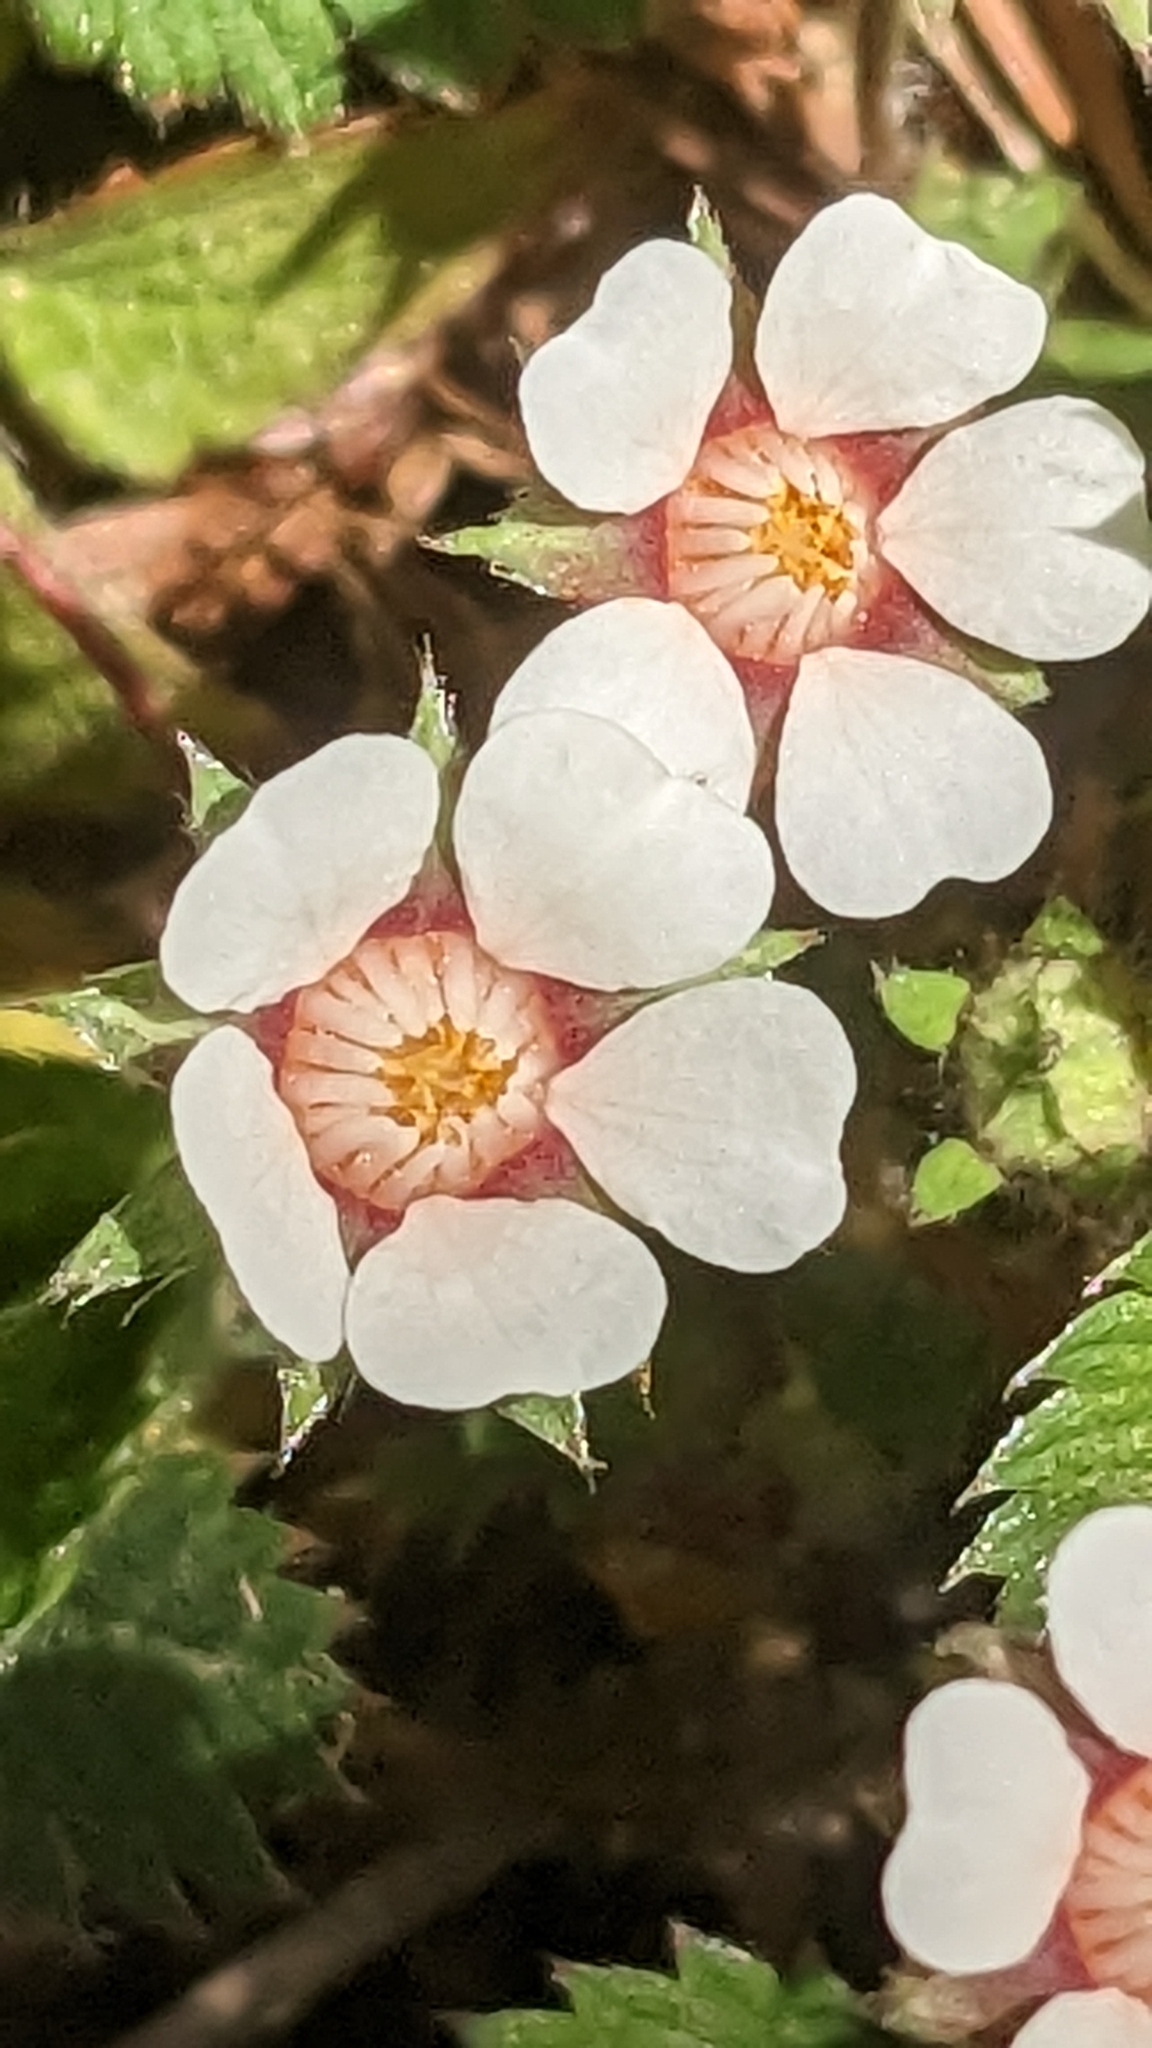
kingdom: Plantae
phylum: Tracheophyta
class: Magnoliopsida
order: Rosales
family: Rosaceae
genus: Potentilla
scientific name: Potentilla micrantha
